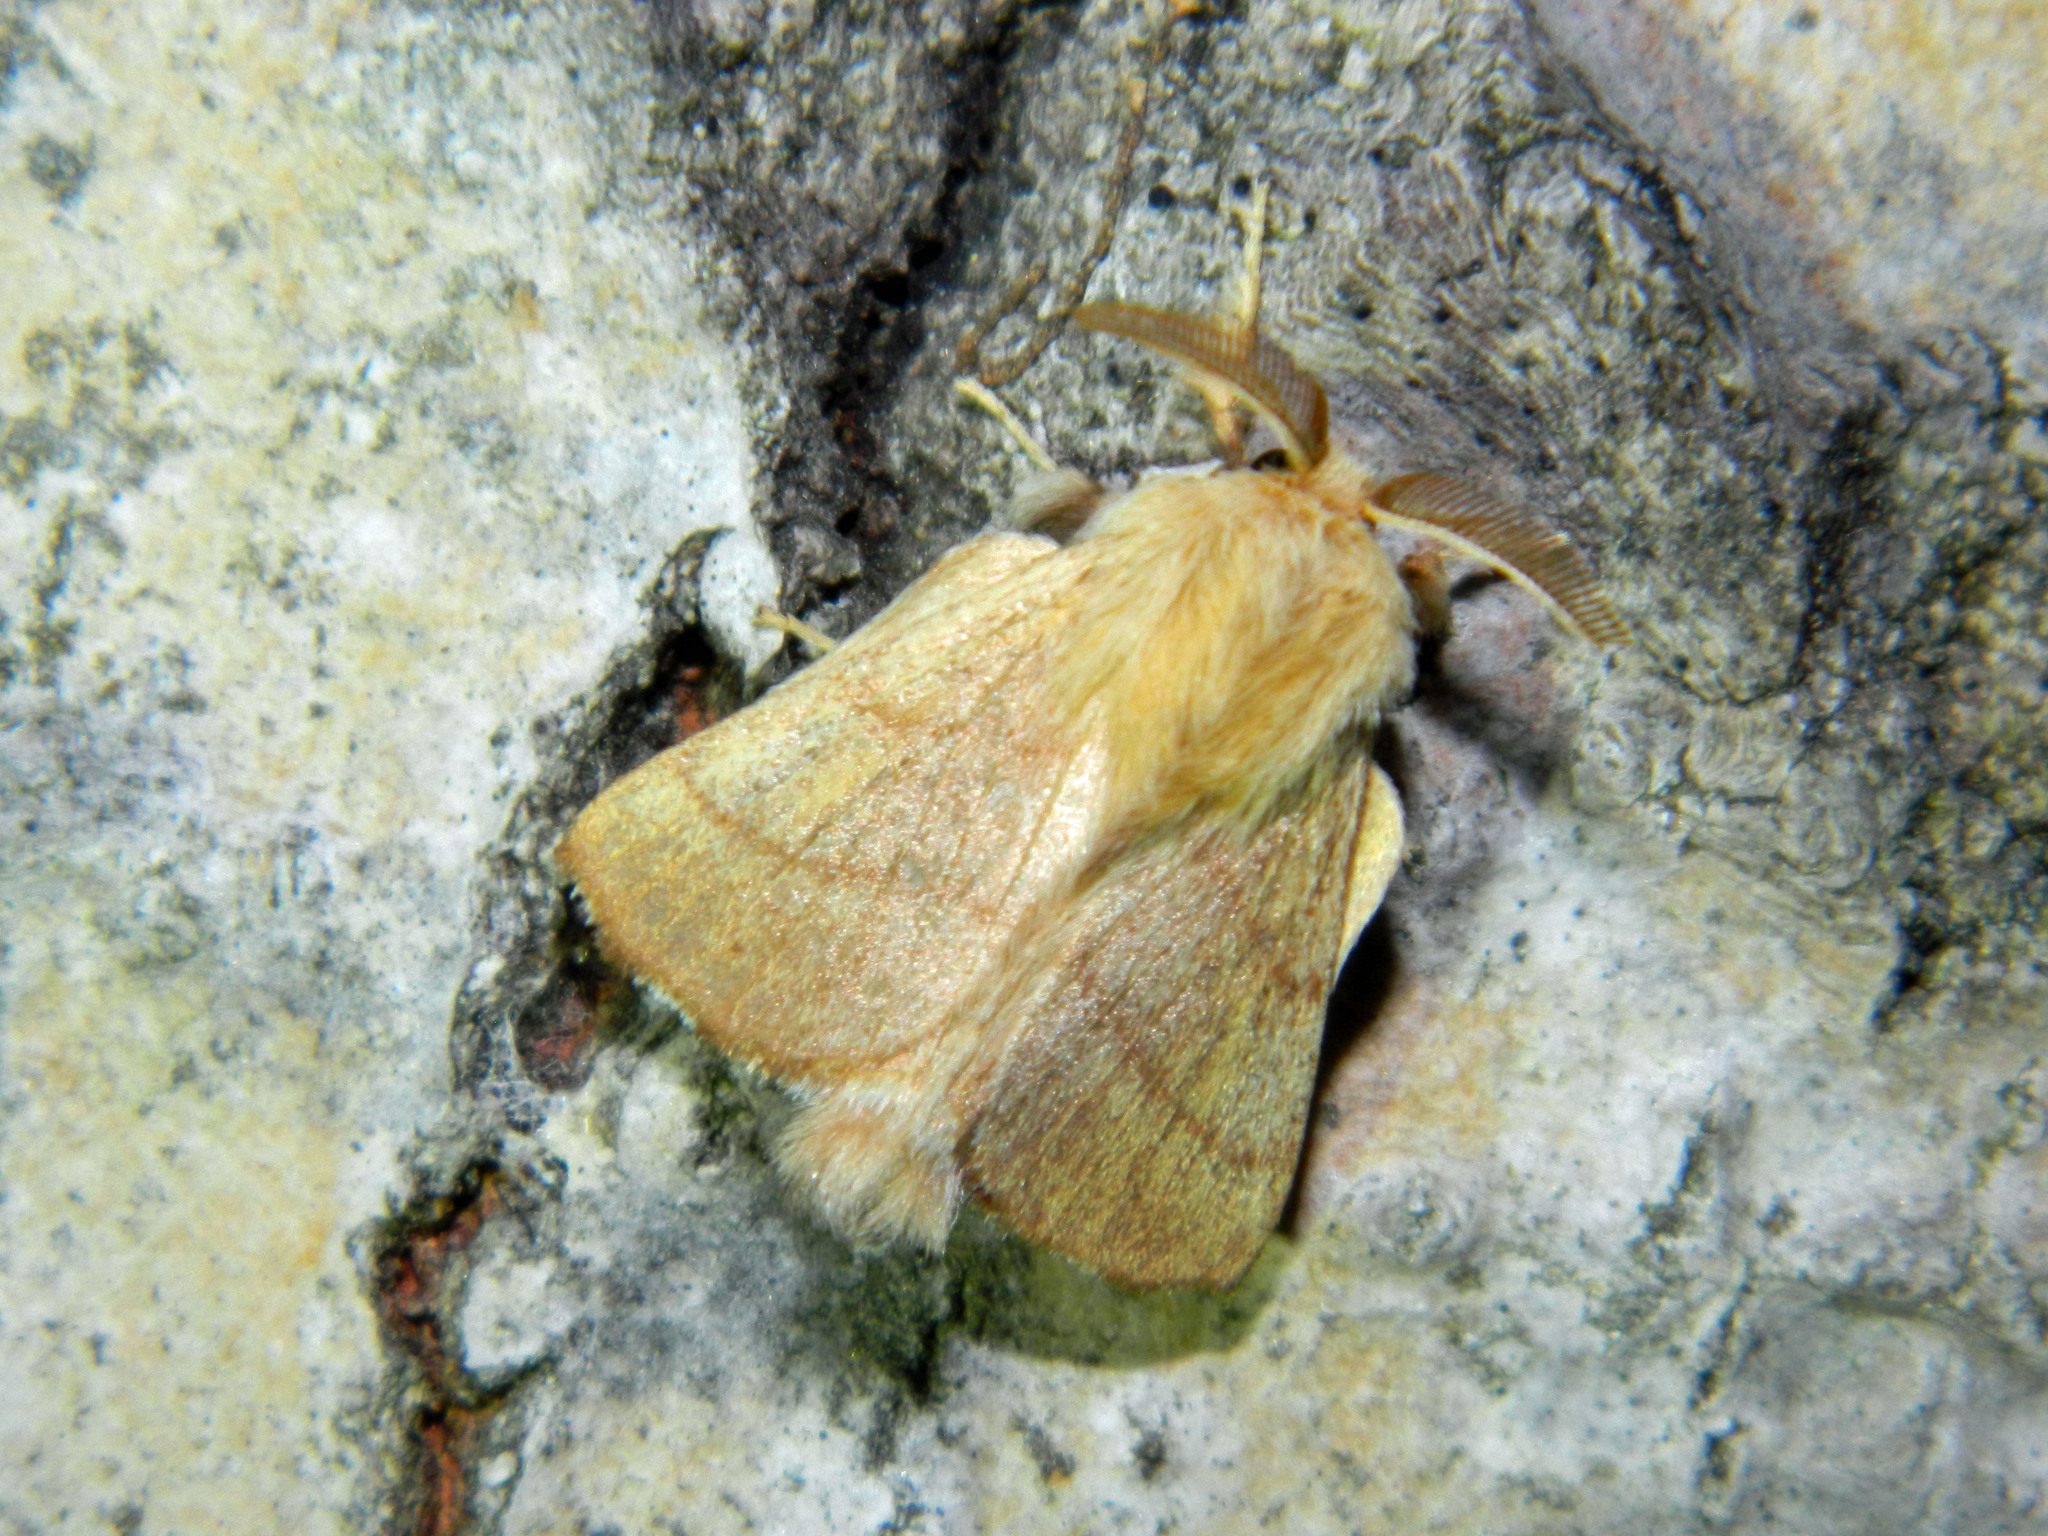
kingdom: Animalia
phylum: Arthropoda
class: Insecta
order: Lepidoptera
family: Lasiocampidae
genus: Malacosoma
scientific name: Malacosoma disstria
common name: Forest tent caterpillar
